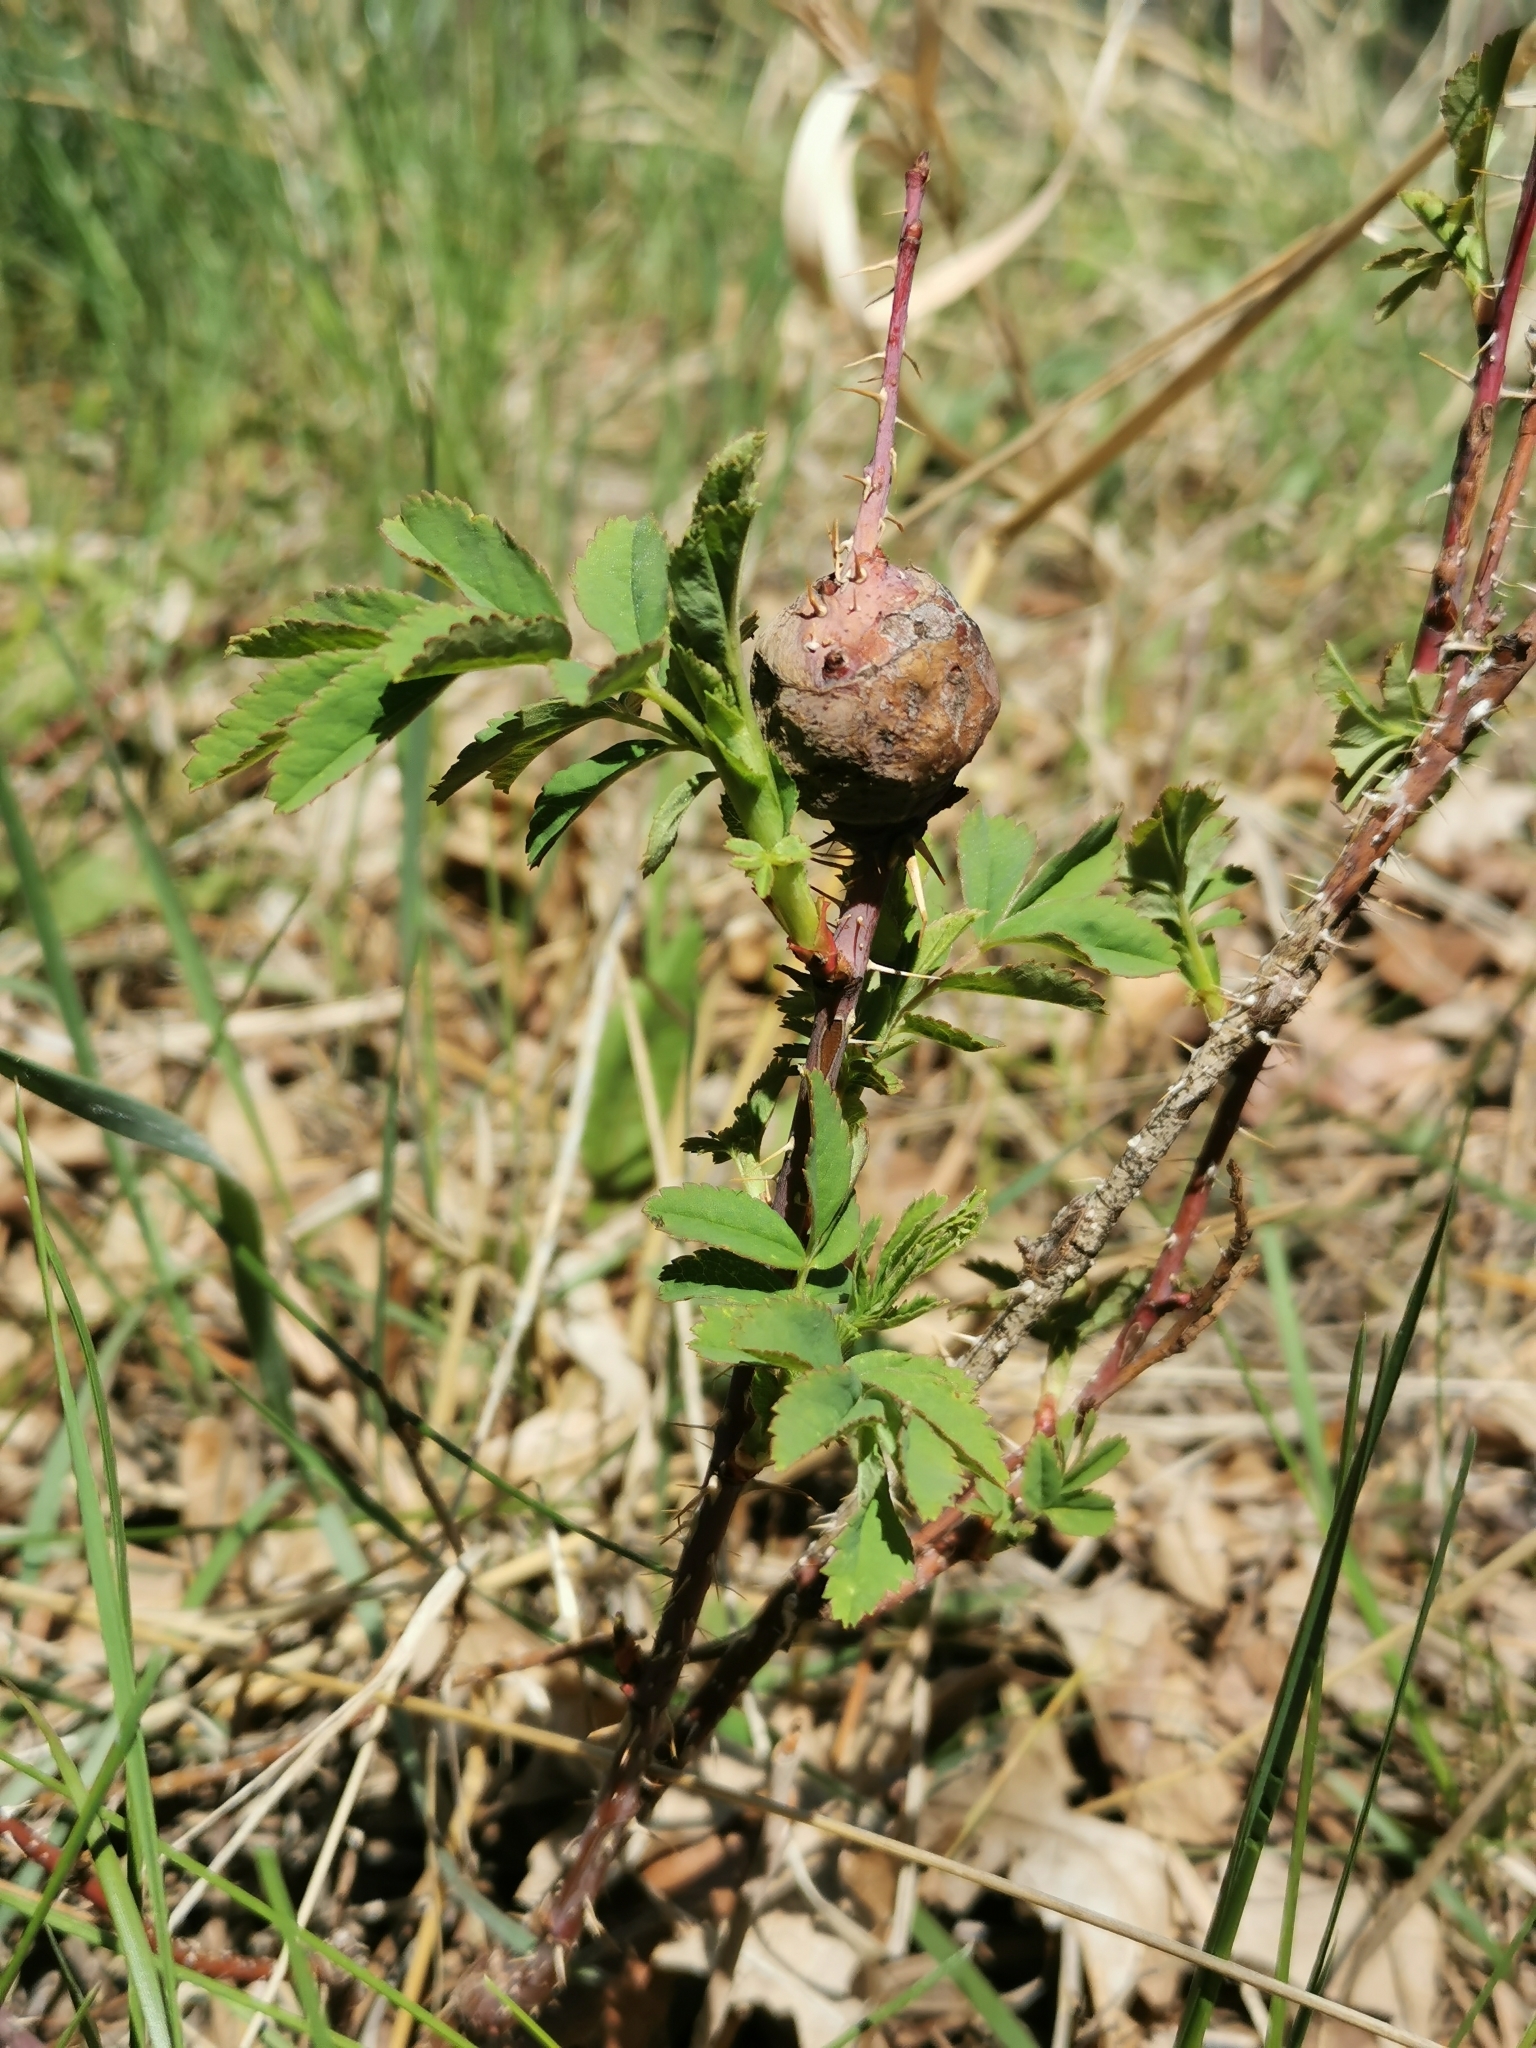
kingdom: Animalia
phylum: Arthropoda
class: Insecta
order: Hymenoptera
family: Cynipidae
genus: Diplolepis
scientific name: Diplolepis spinosa
